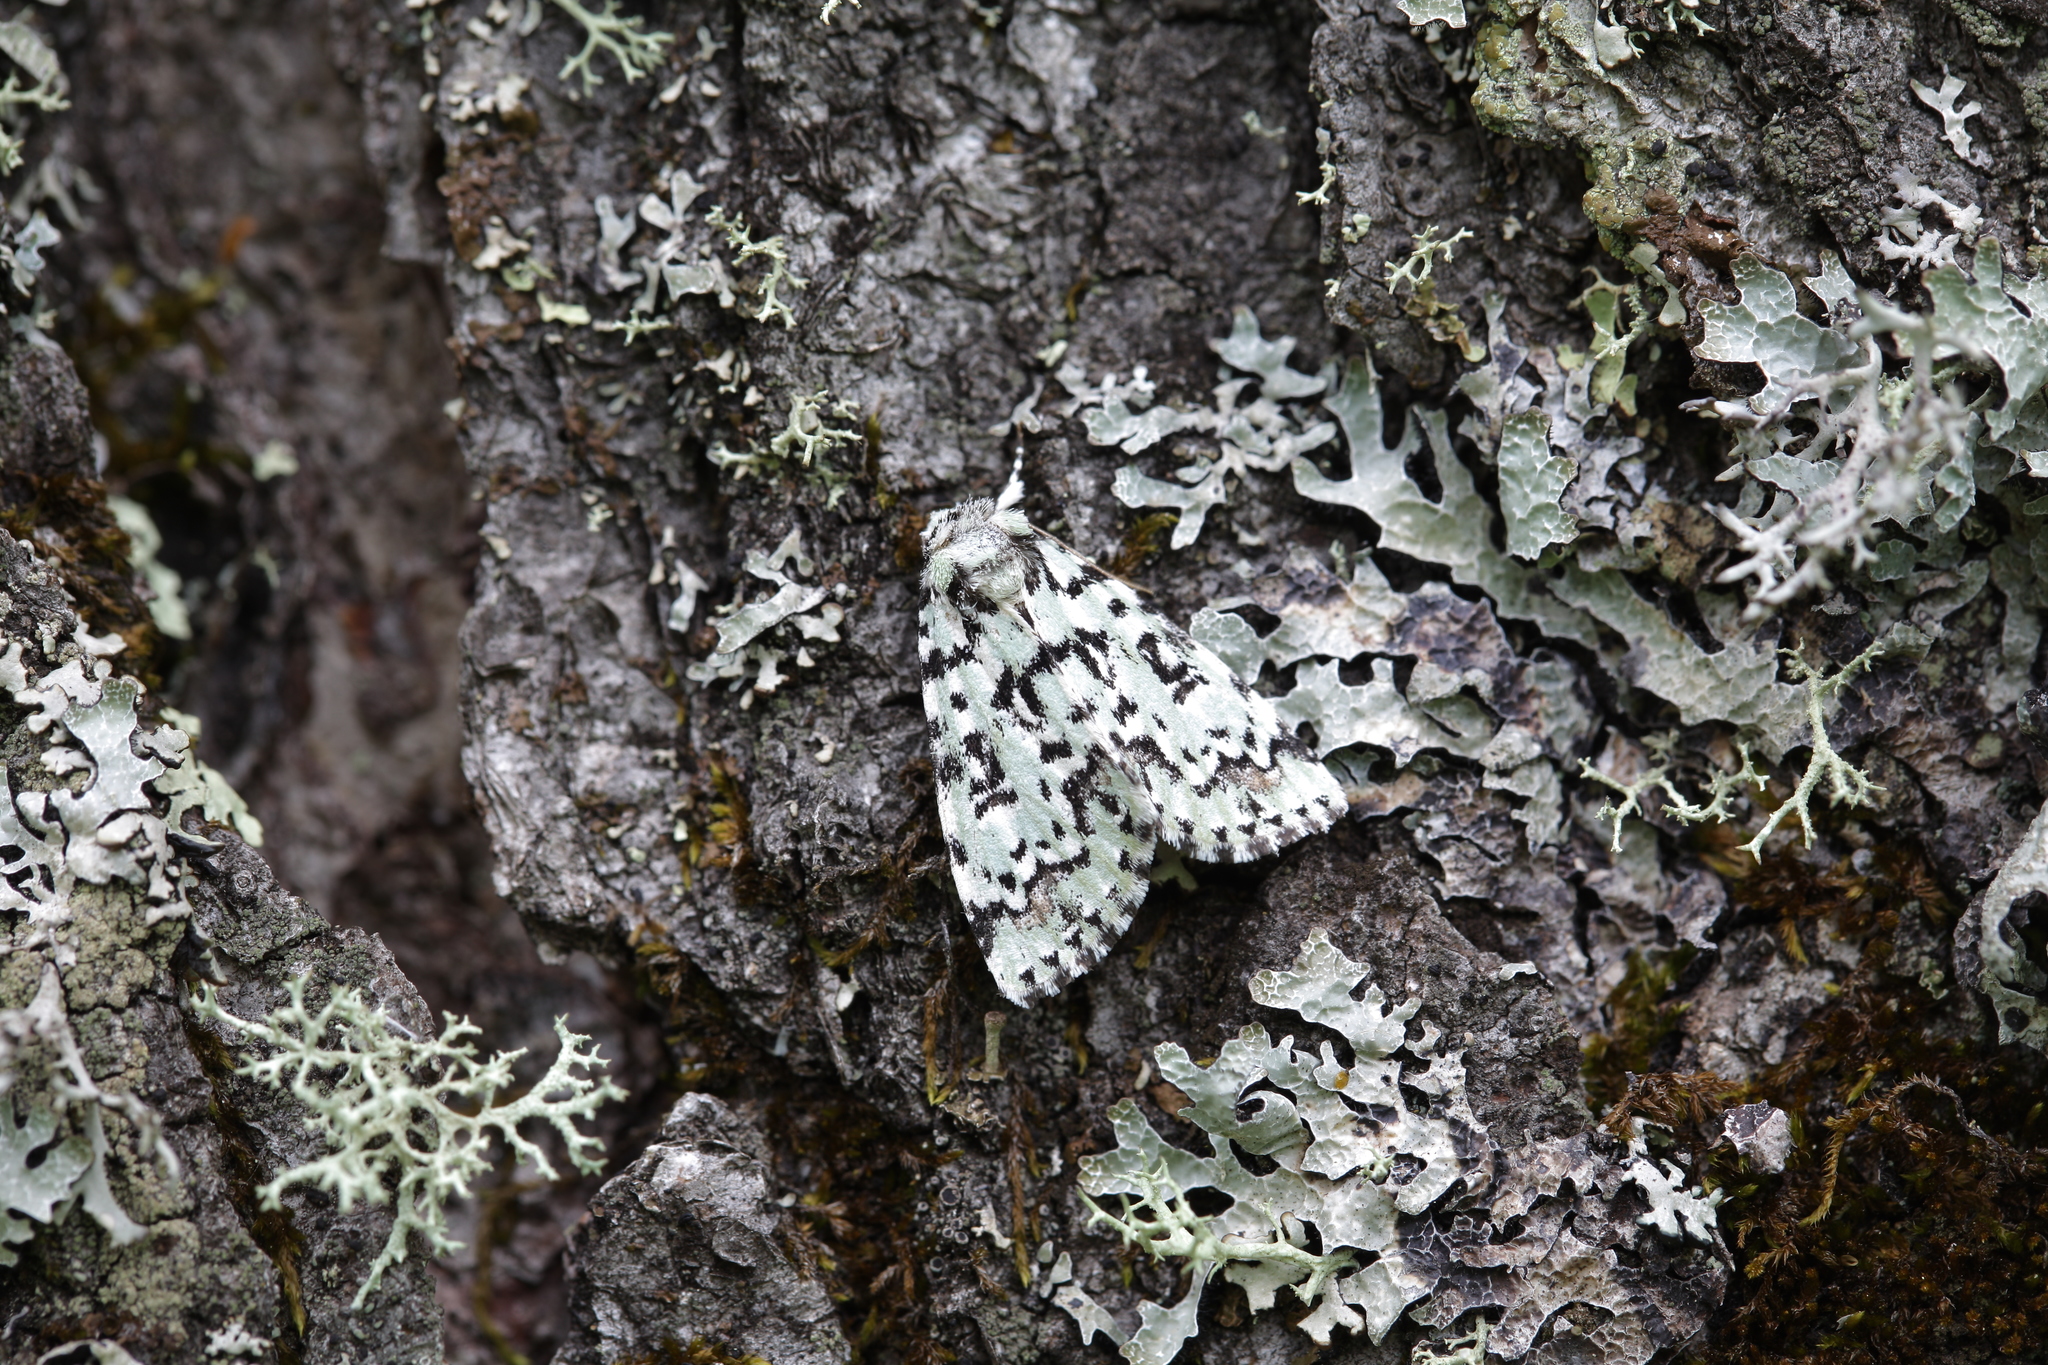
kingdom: Animalia
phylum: Arthropoda
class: Insecta
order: Lepidoptera
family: Noctuidae
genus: Moma
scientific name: Moma alpium
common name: Scarce merveille du jour
